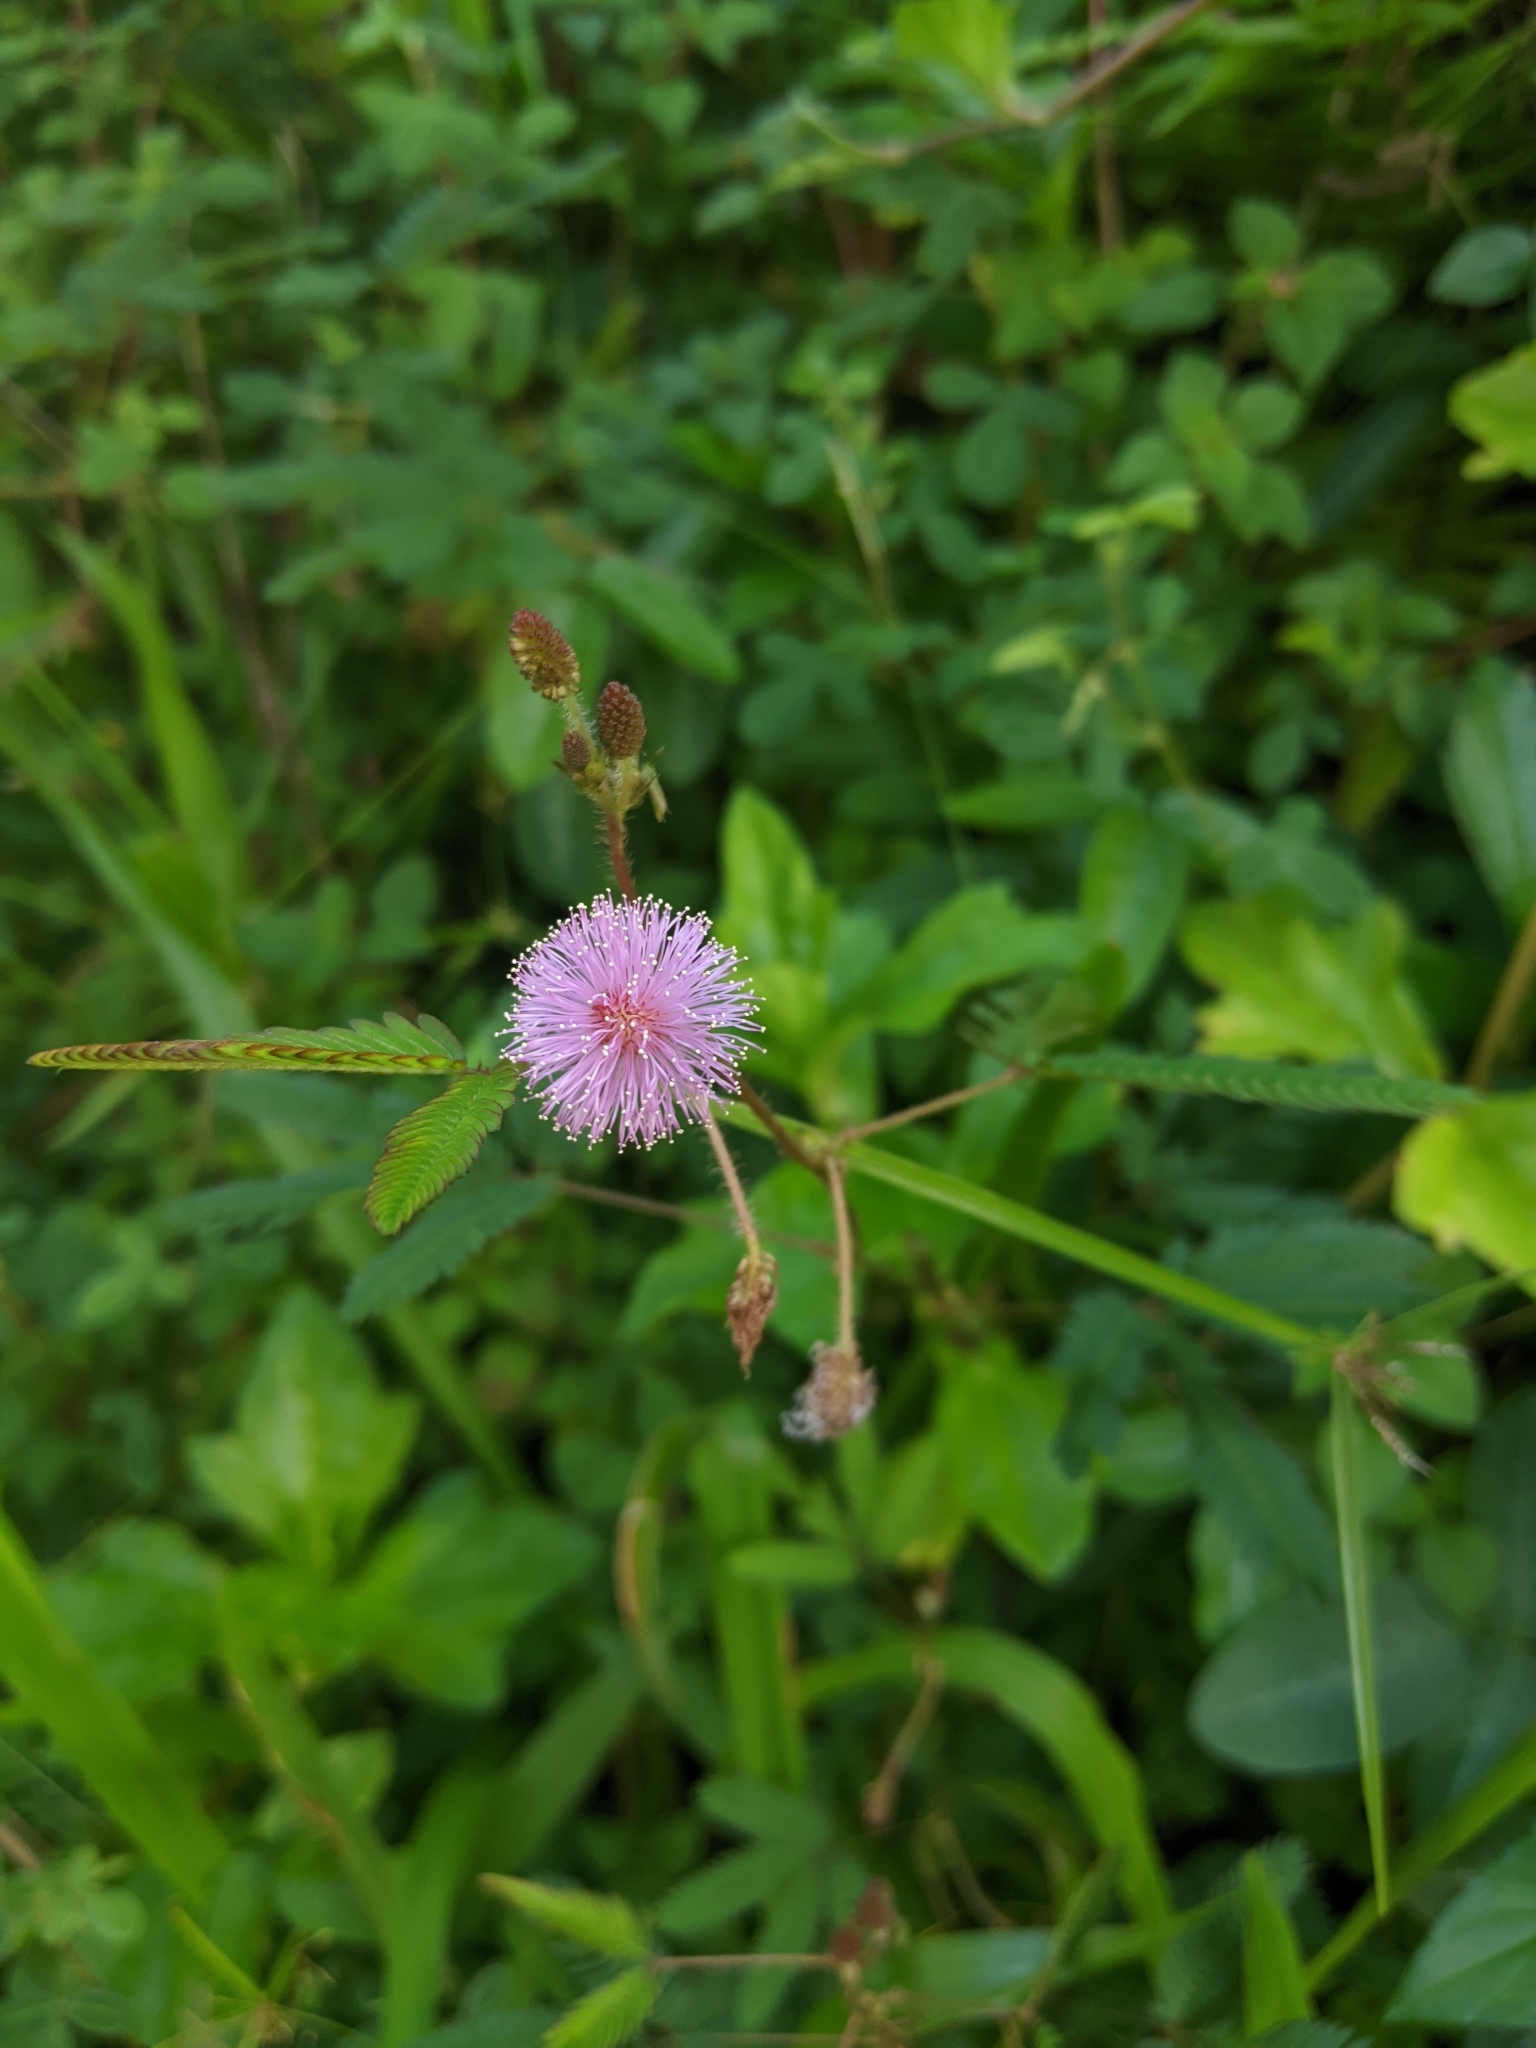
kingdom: Plantae
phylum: Tracheophyta
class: Magnoliopsida
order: Fabales
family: Fabaceae
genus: Mimosa
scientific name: Mimosa pudica
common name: Sensitive plant
